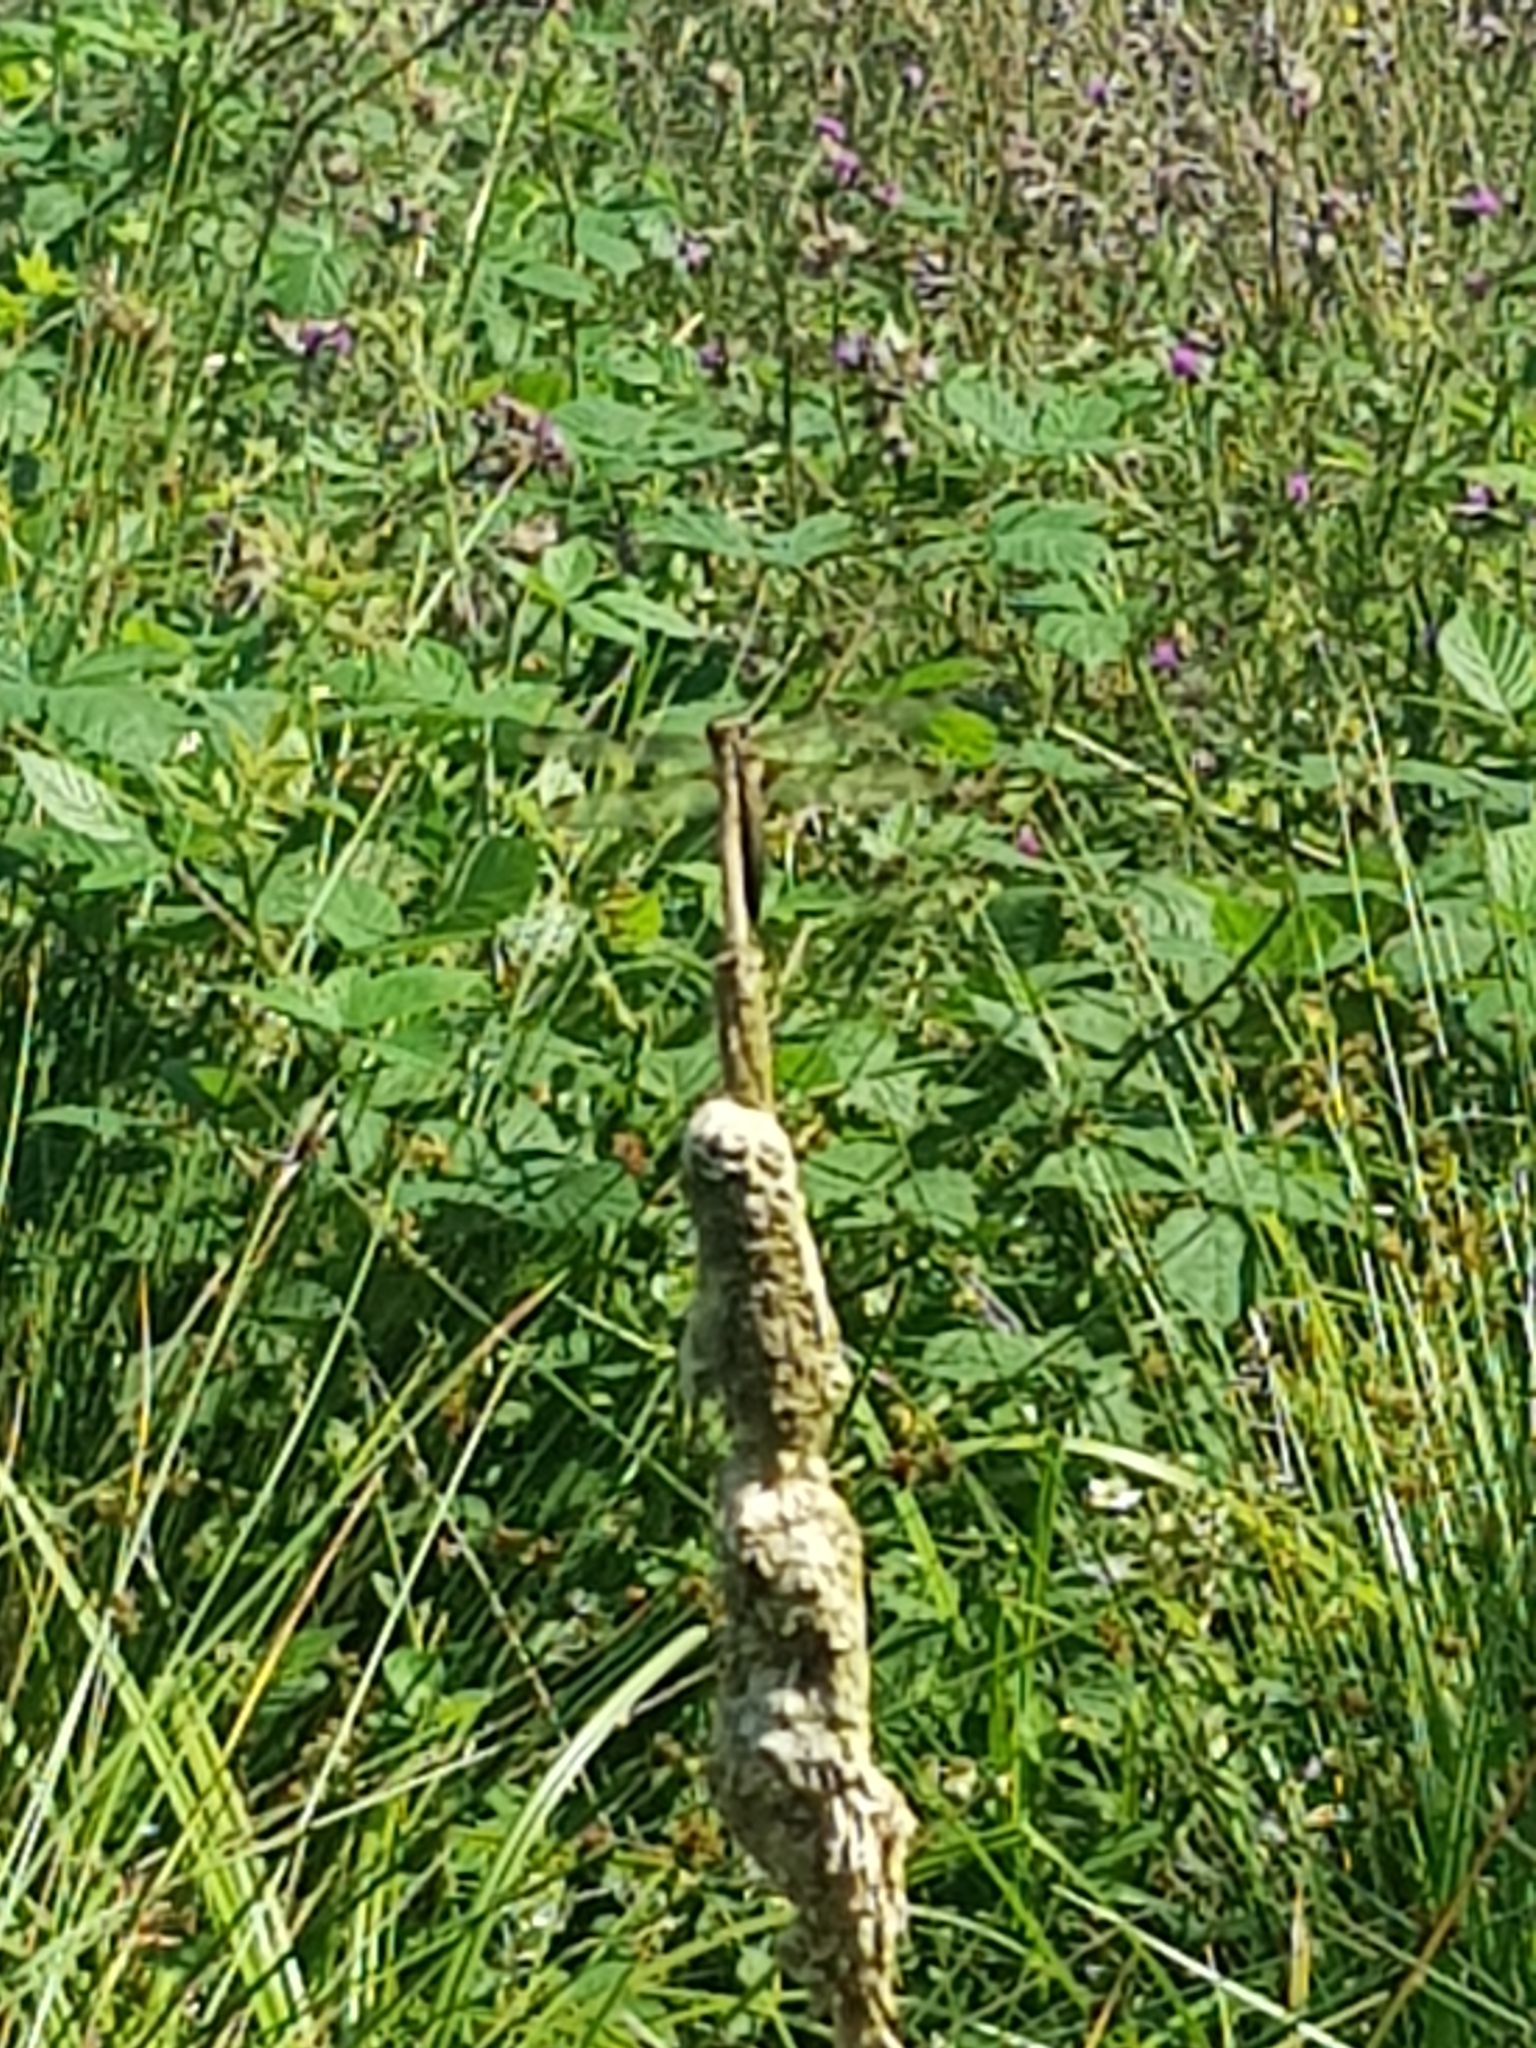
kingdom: Animalia
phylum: Arthropoda
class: Insecta
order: Odonata
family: Libellulidae
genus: Libellula
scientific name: Libellula quadrimaculata
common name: Four-spotted chaser
